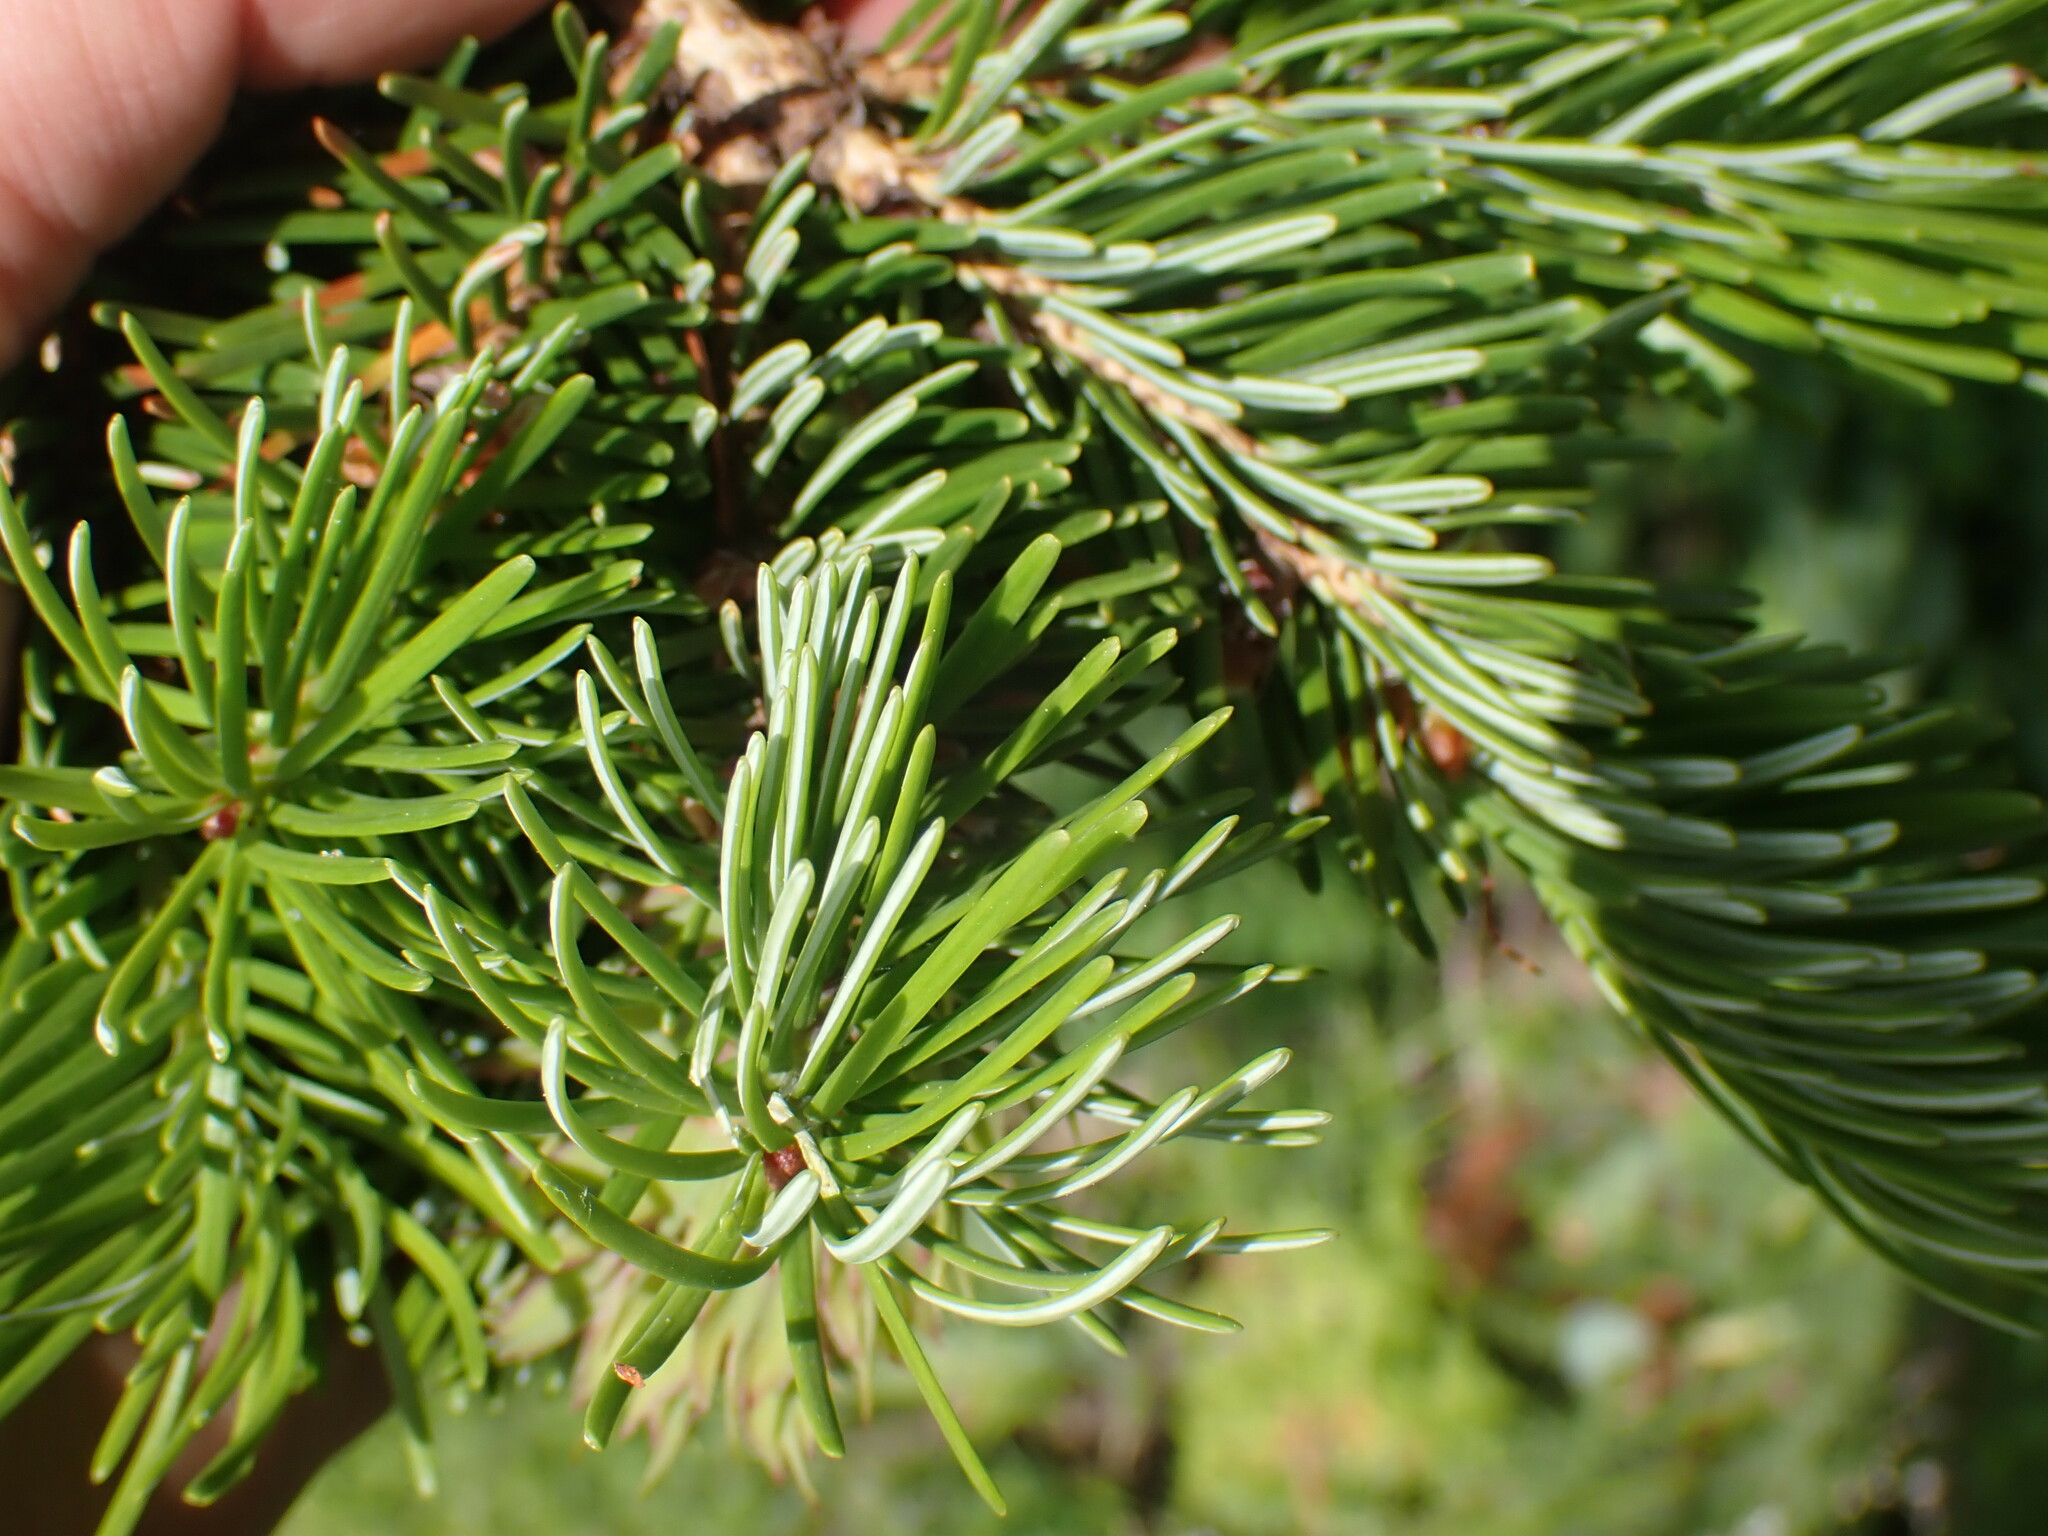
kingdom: Plantae
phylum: Tracheophyta
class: Pinopsida
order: Pinales
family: Pinaceae
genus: Pseudotsuga
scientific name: Pseudotsuga menziesii
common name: Douglas fir
